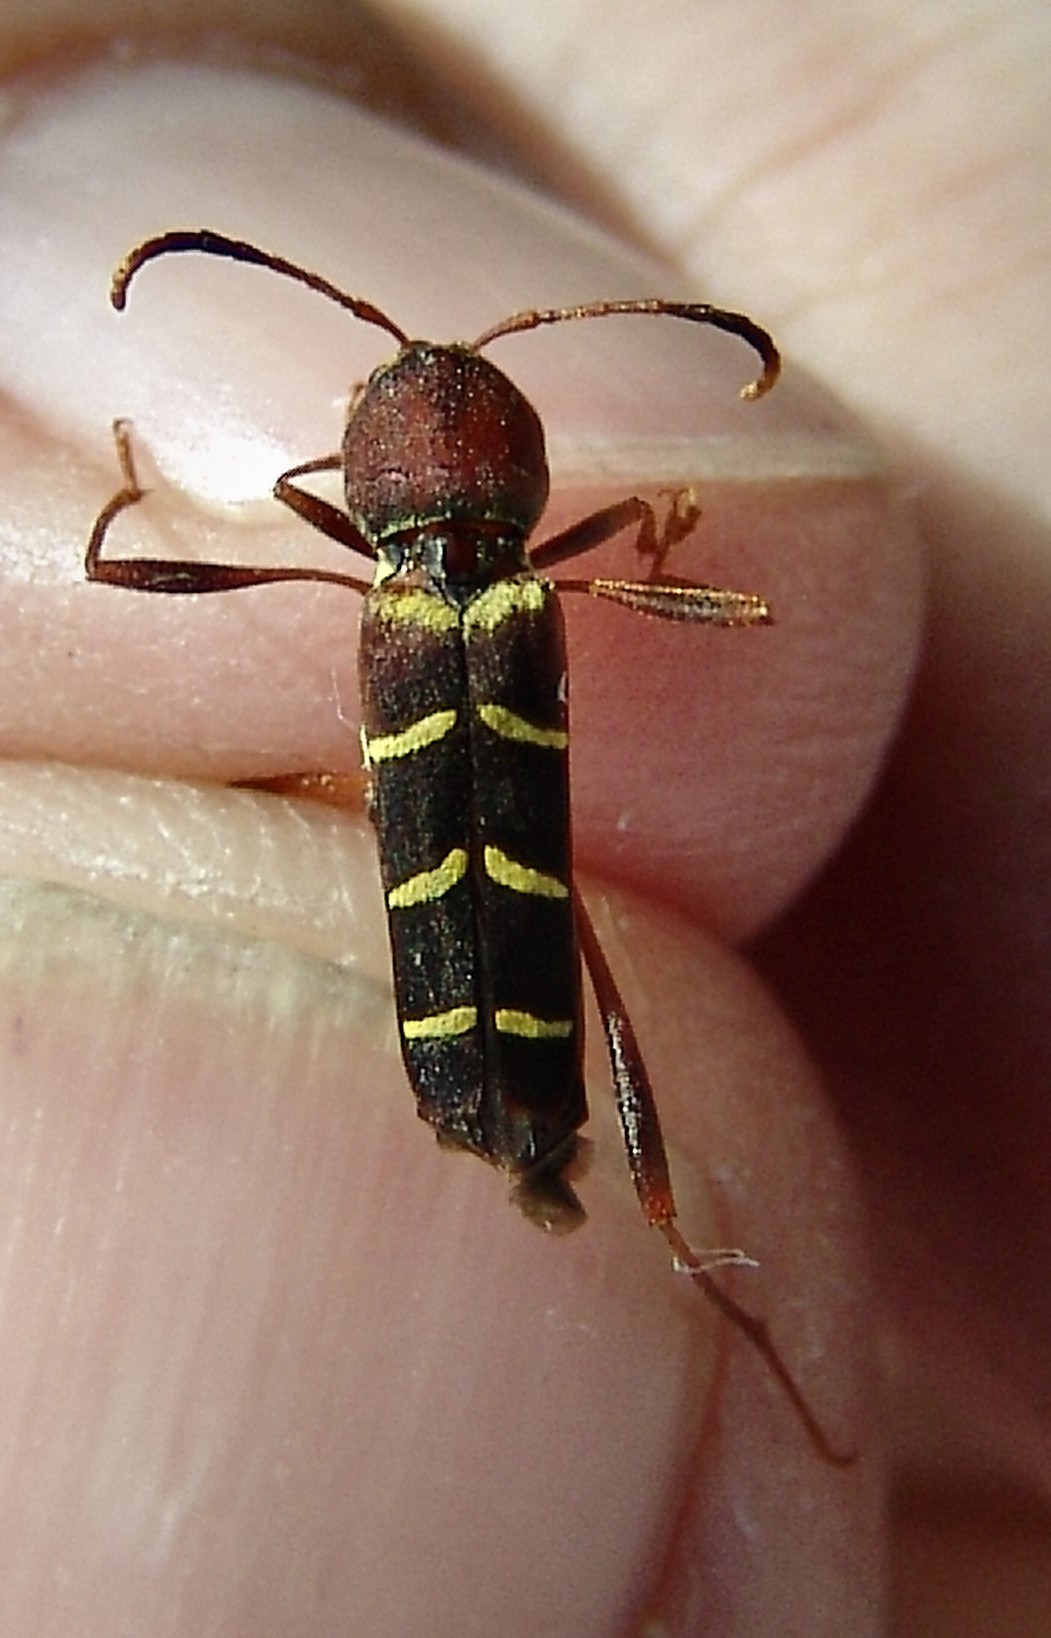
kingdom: Animalia
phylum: Arthropoda
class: Insecta
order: Coleoptera
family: Cerambycidae
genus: Neoclytus
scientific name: Neoclytus acuminatus
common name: Read-headed ash borer
